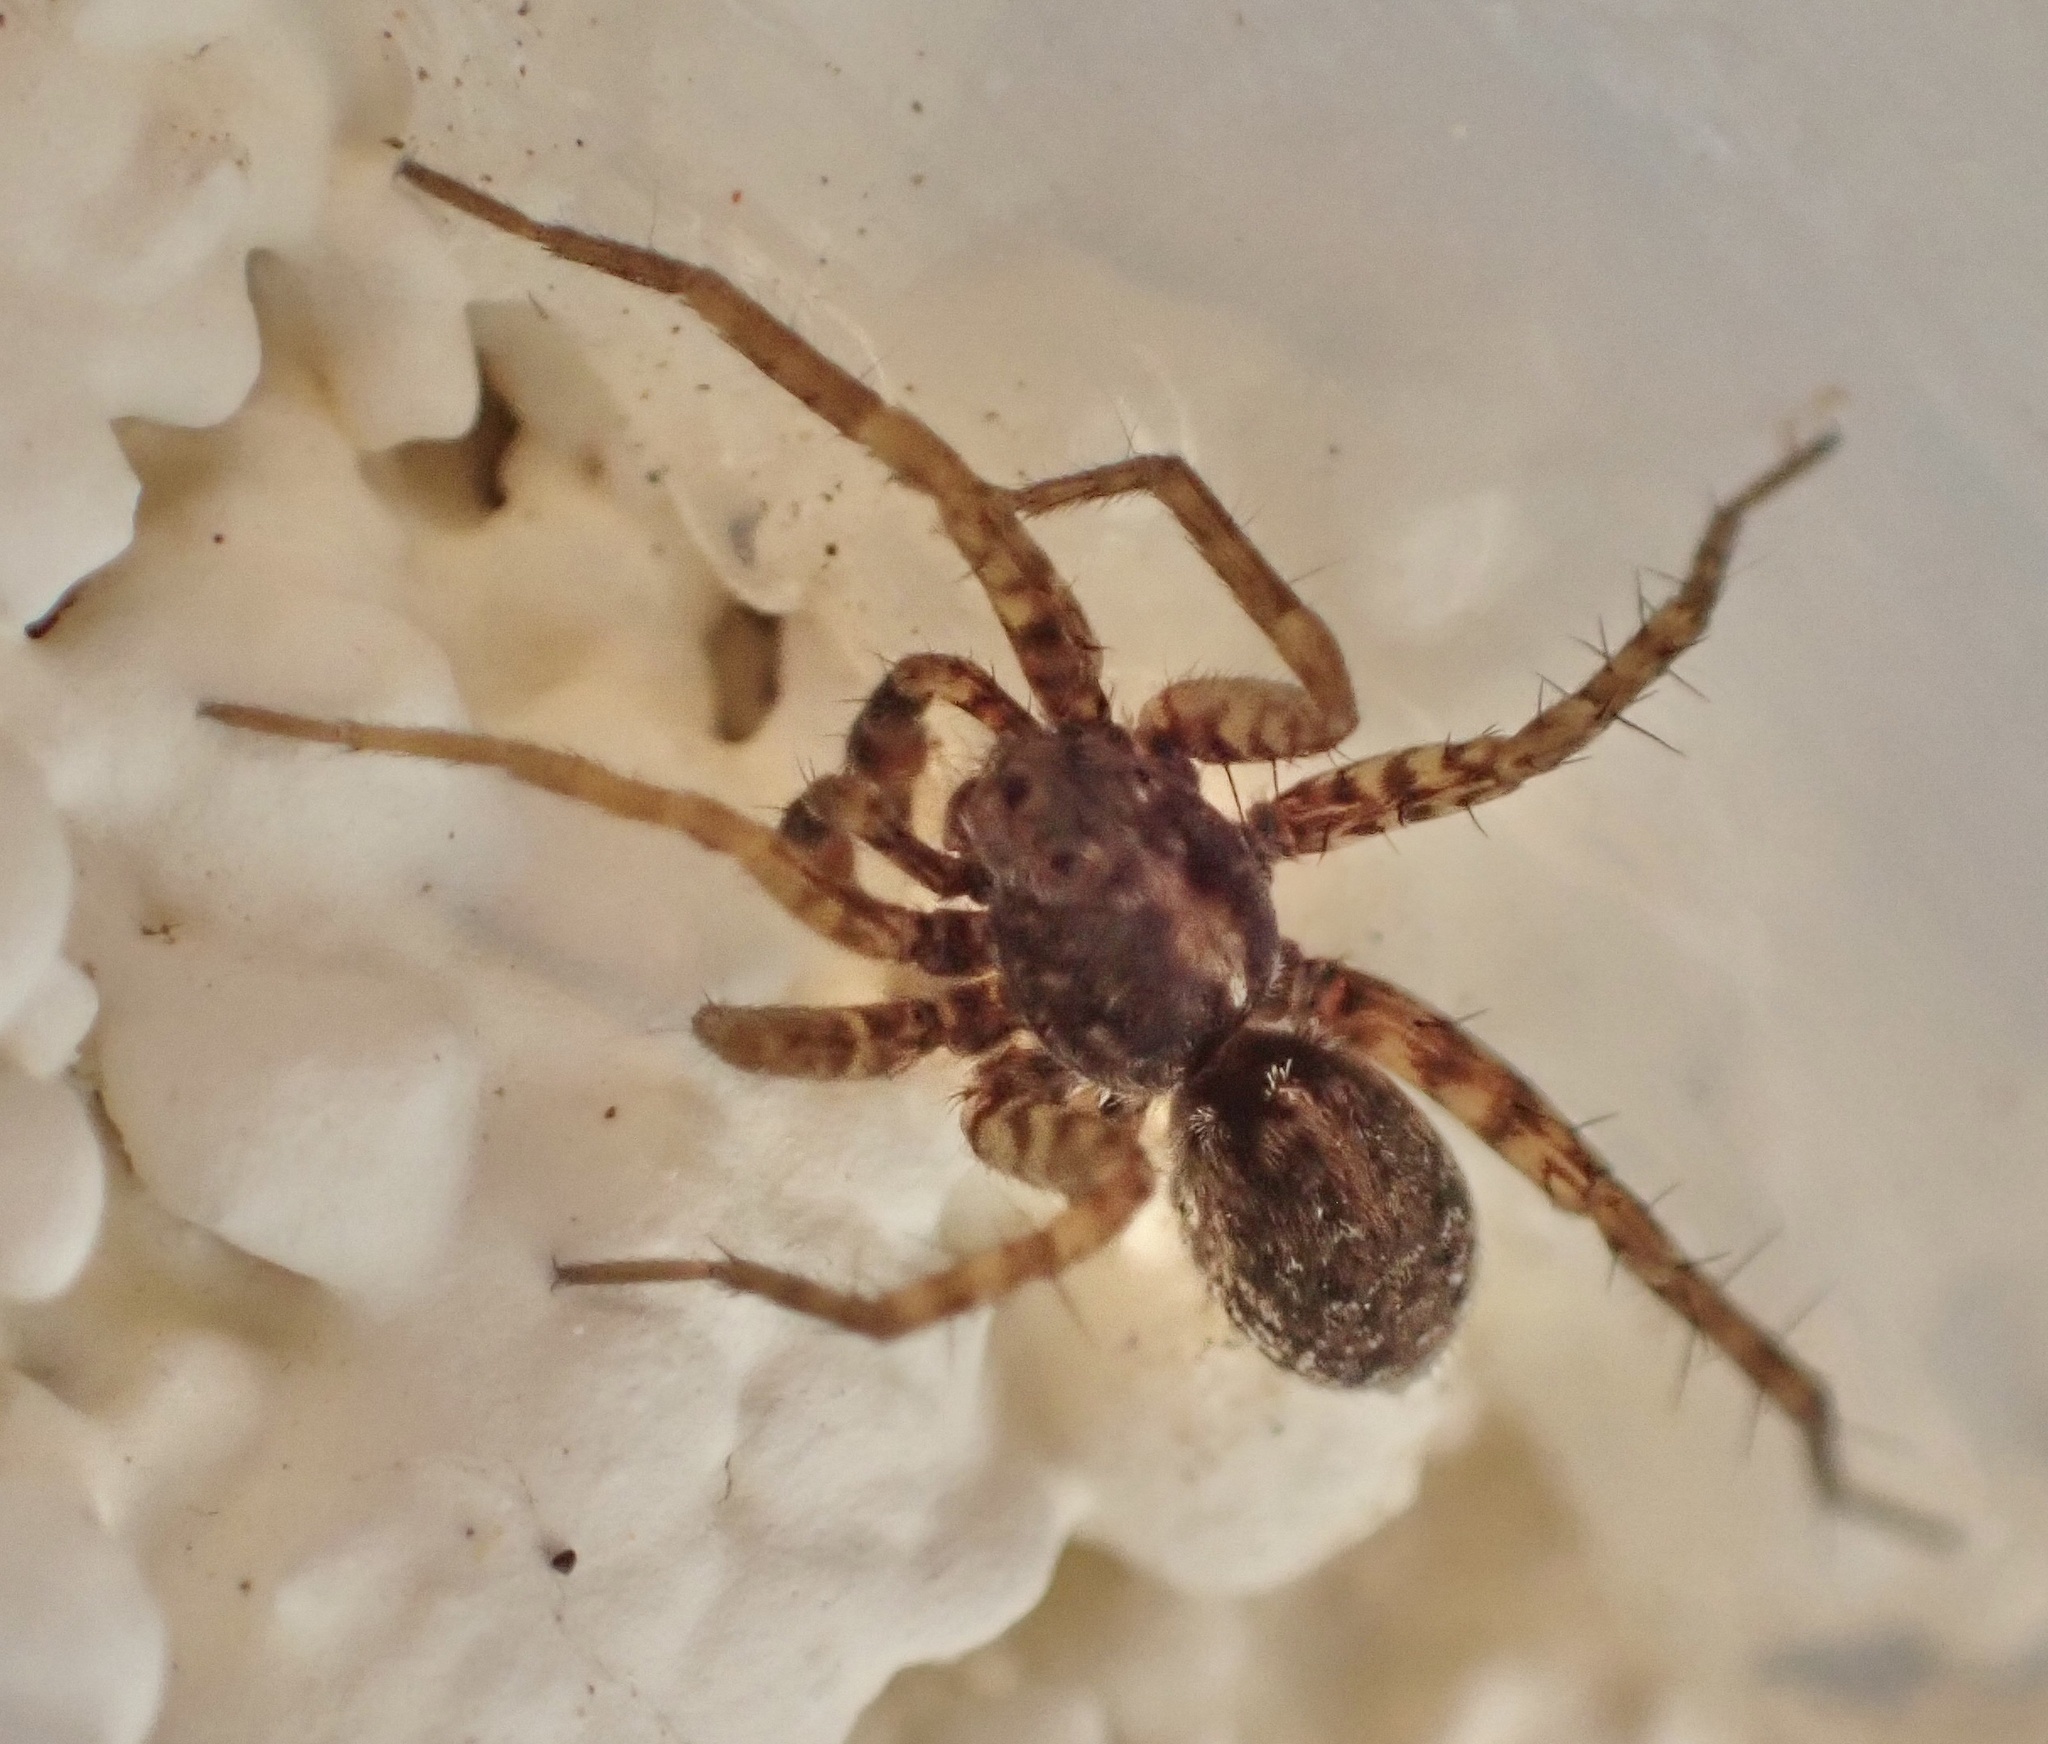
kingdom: Animalia
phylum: Arthropoda
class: Arachnida
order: Araneae
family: Lycosidae
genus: Pardosa
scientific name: Pardosa
